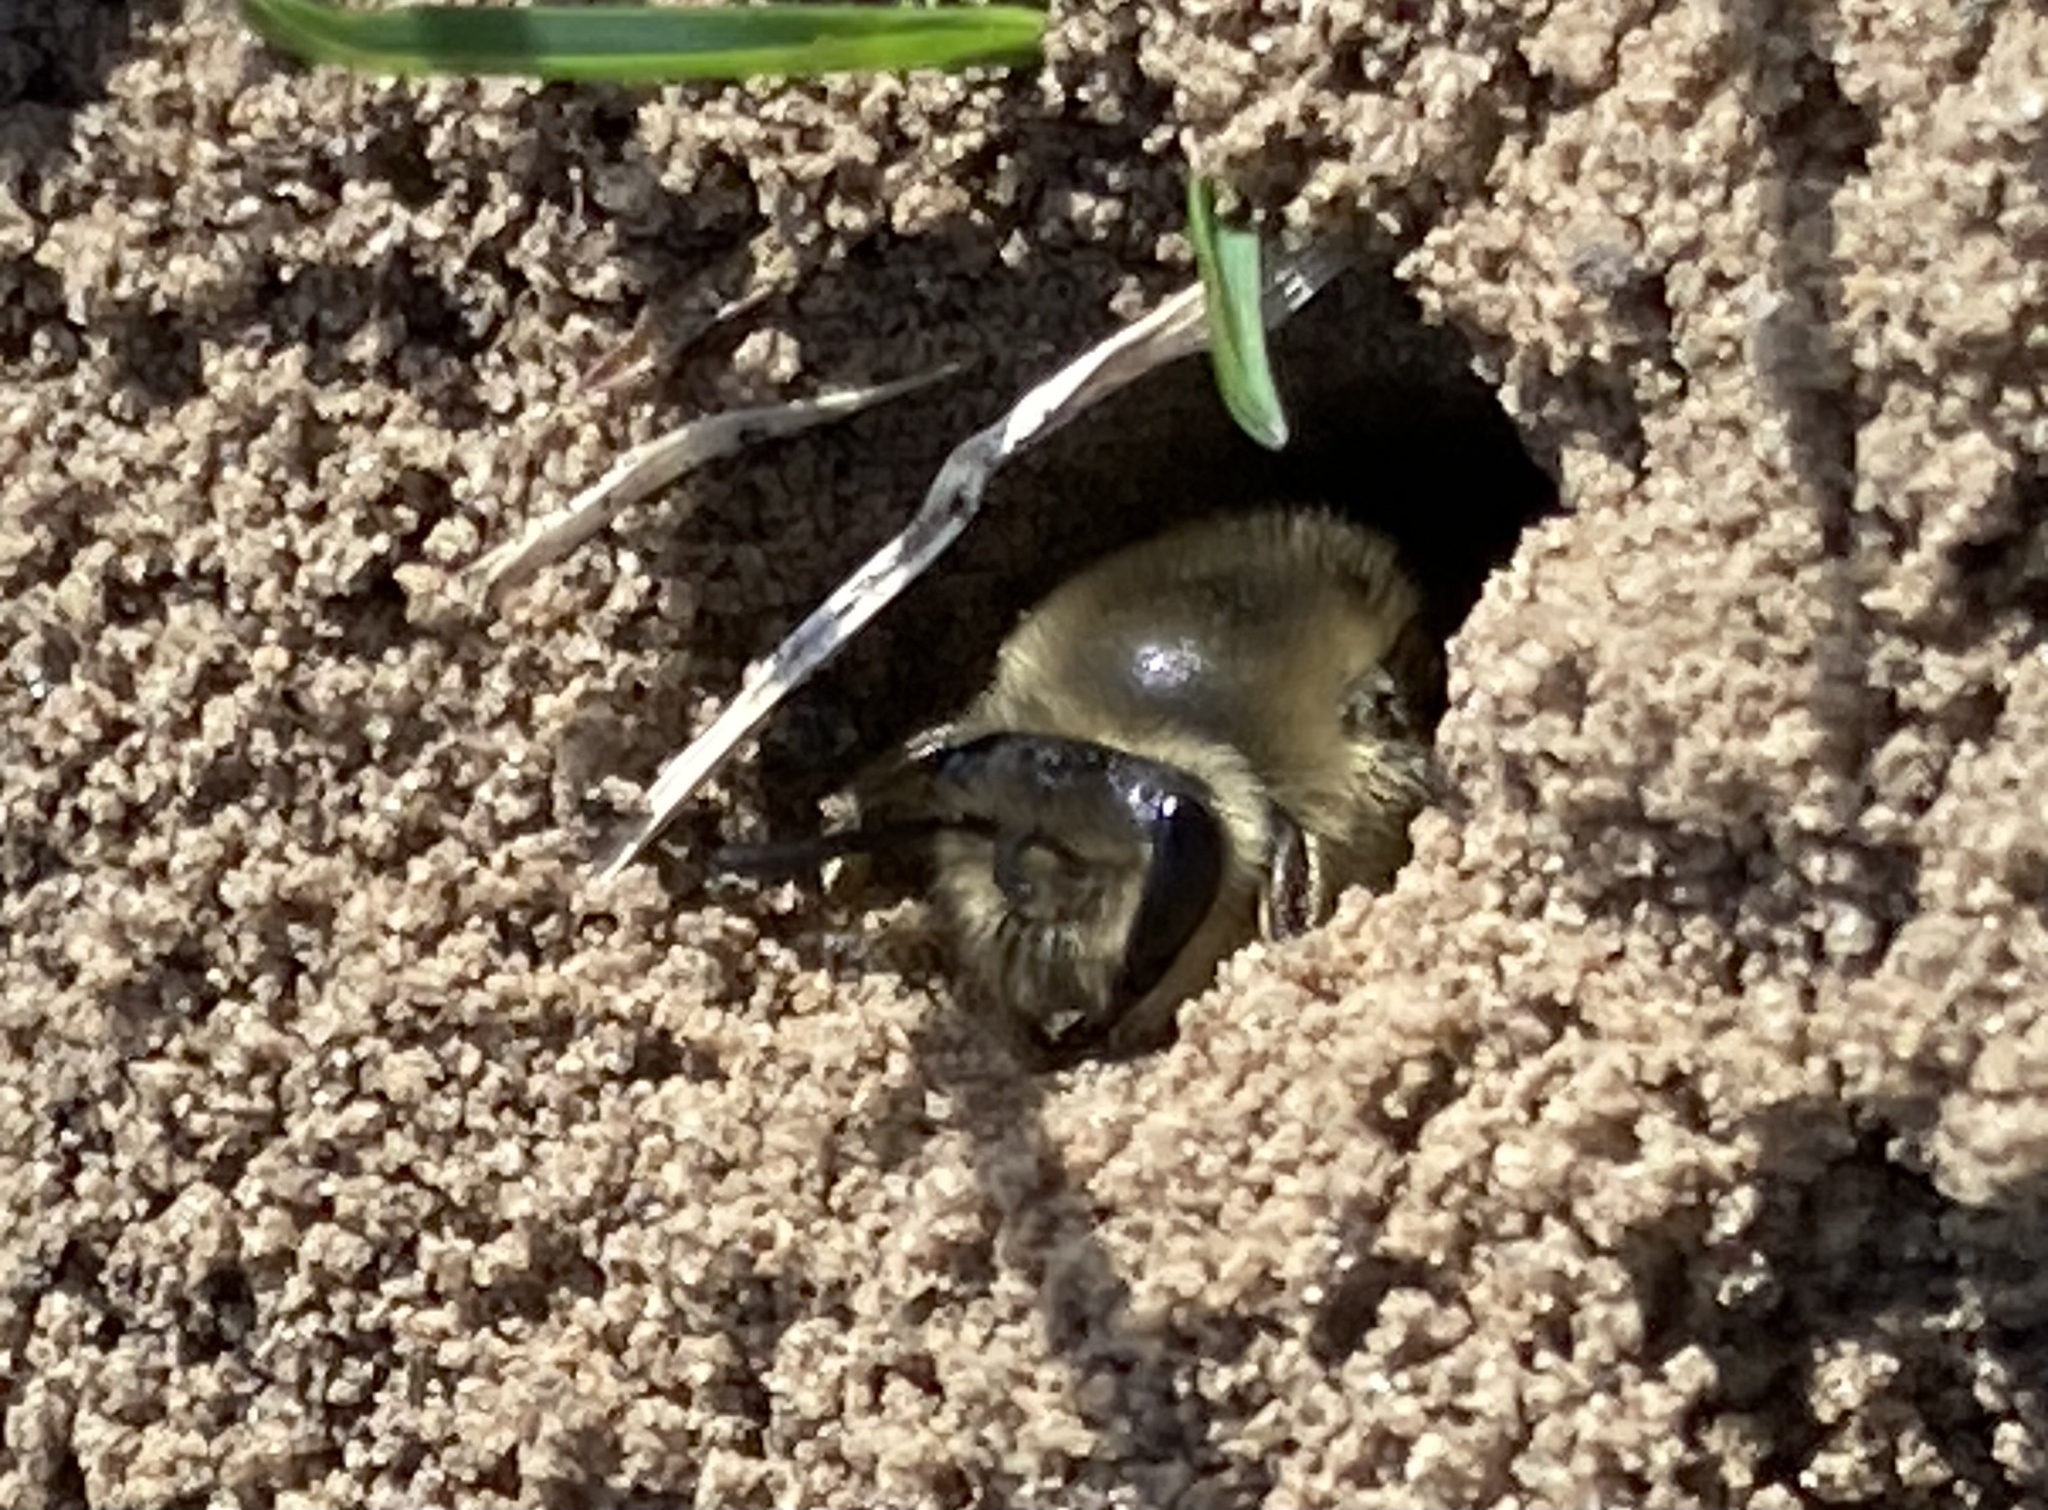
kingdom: Animalia
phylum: Arthropoda
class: Insecta
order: Hymenoptera
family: Colletidae
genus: Colletes
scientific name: Colletes inaequalis
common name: Unequal cellophane bee
